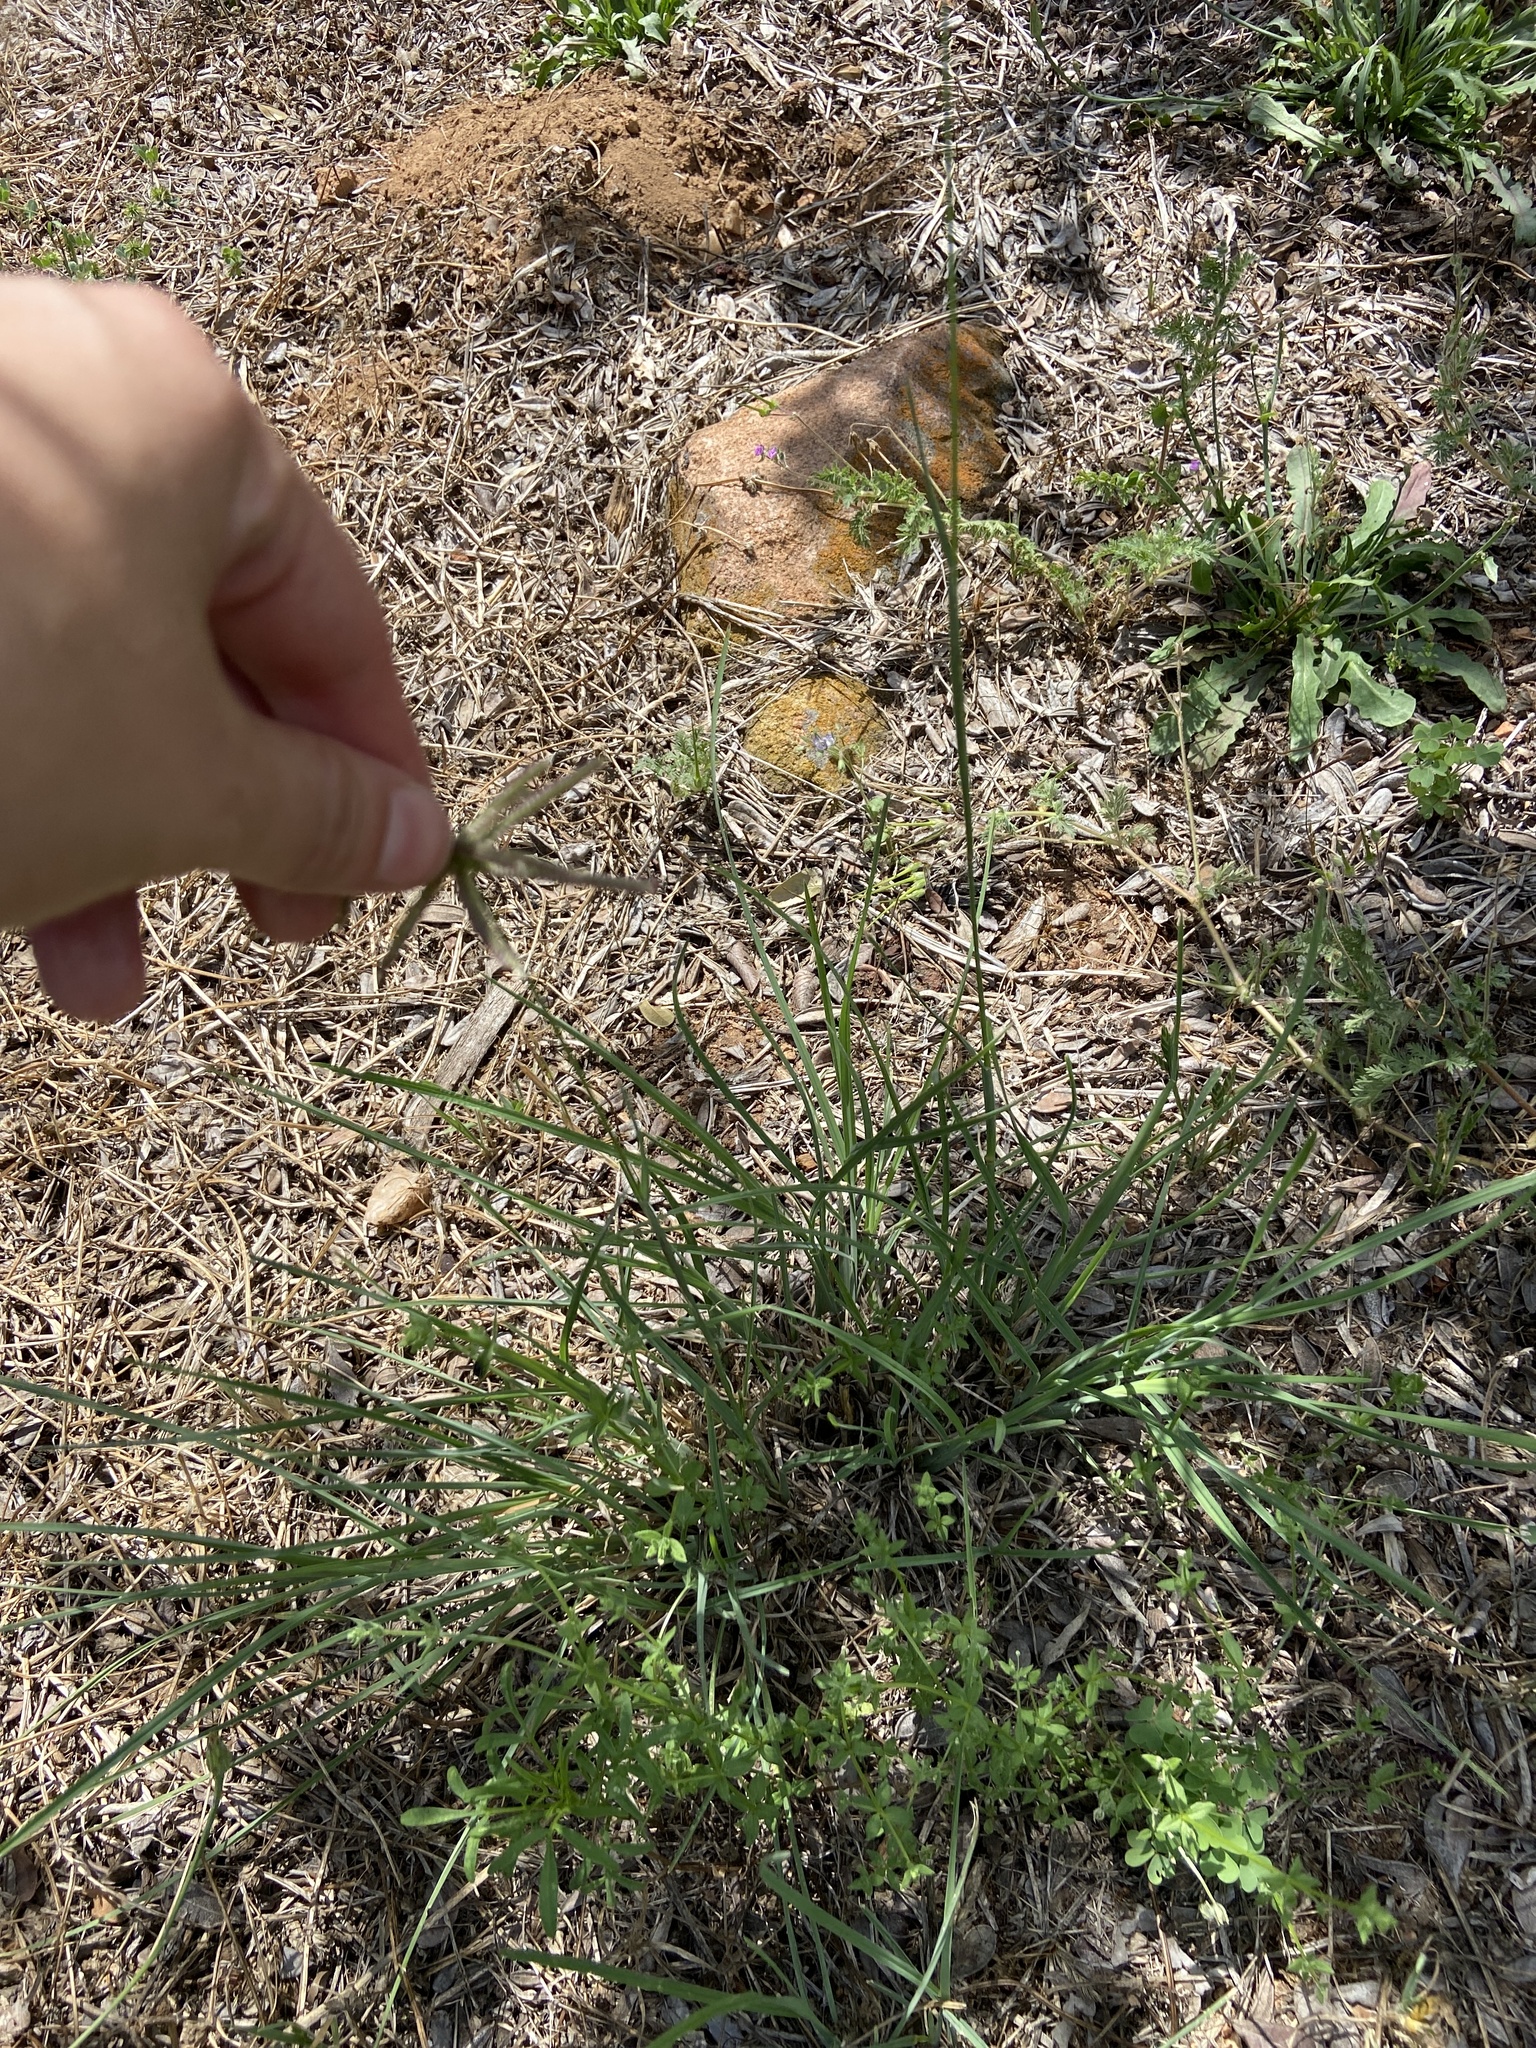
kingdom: Plantae
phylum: Tracheophyta
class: Liliopsida
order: Poales
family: Poaceae
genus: Chloris
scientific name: Chloris cucullata
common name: Hooded windmill grass
